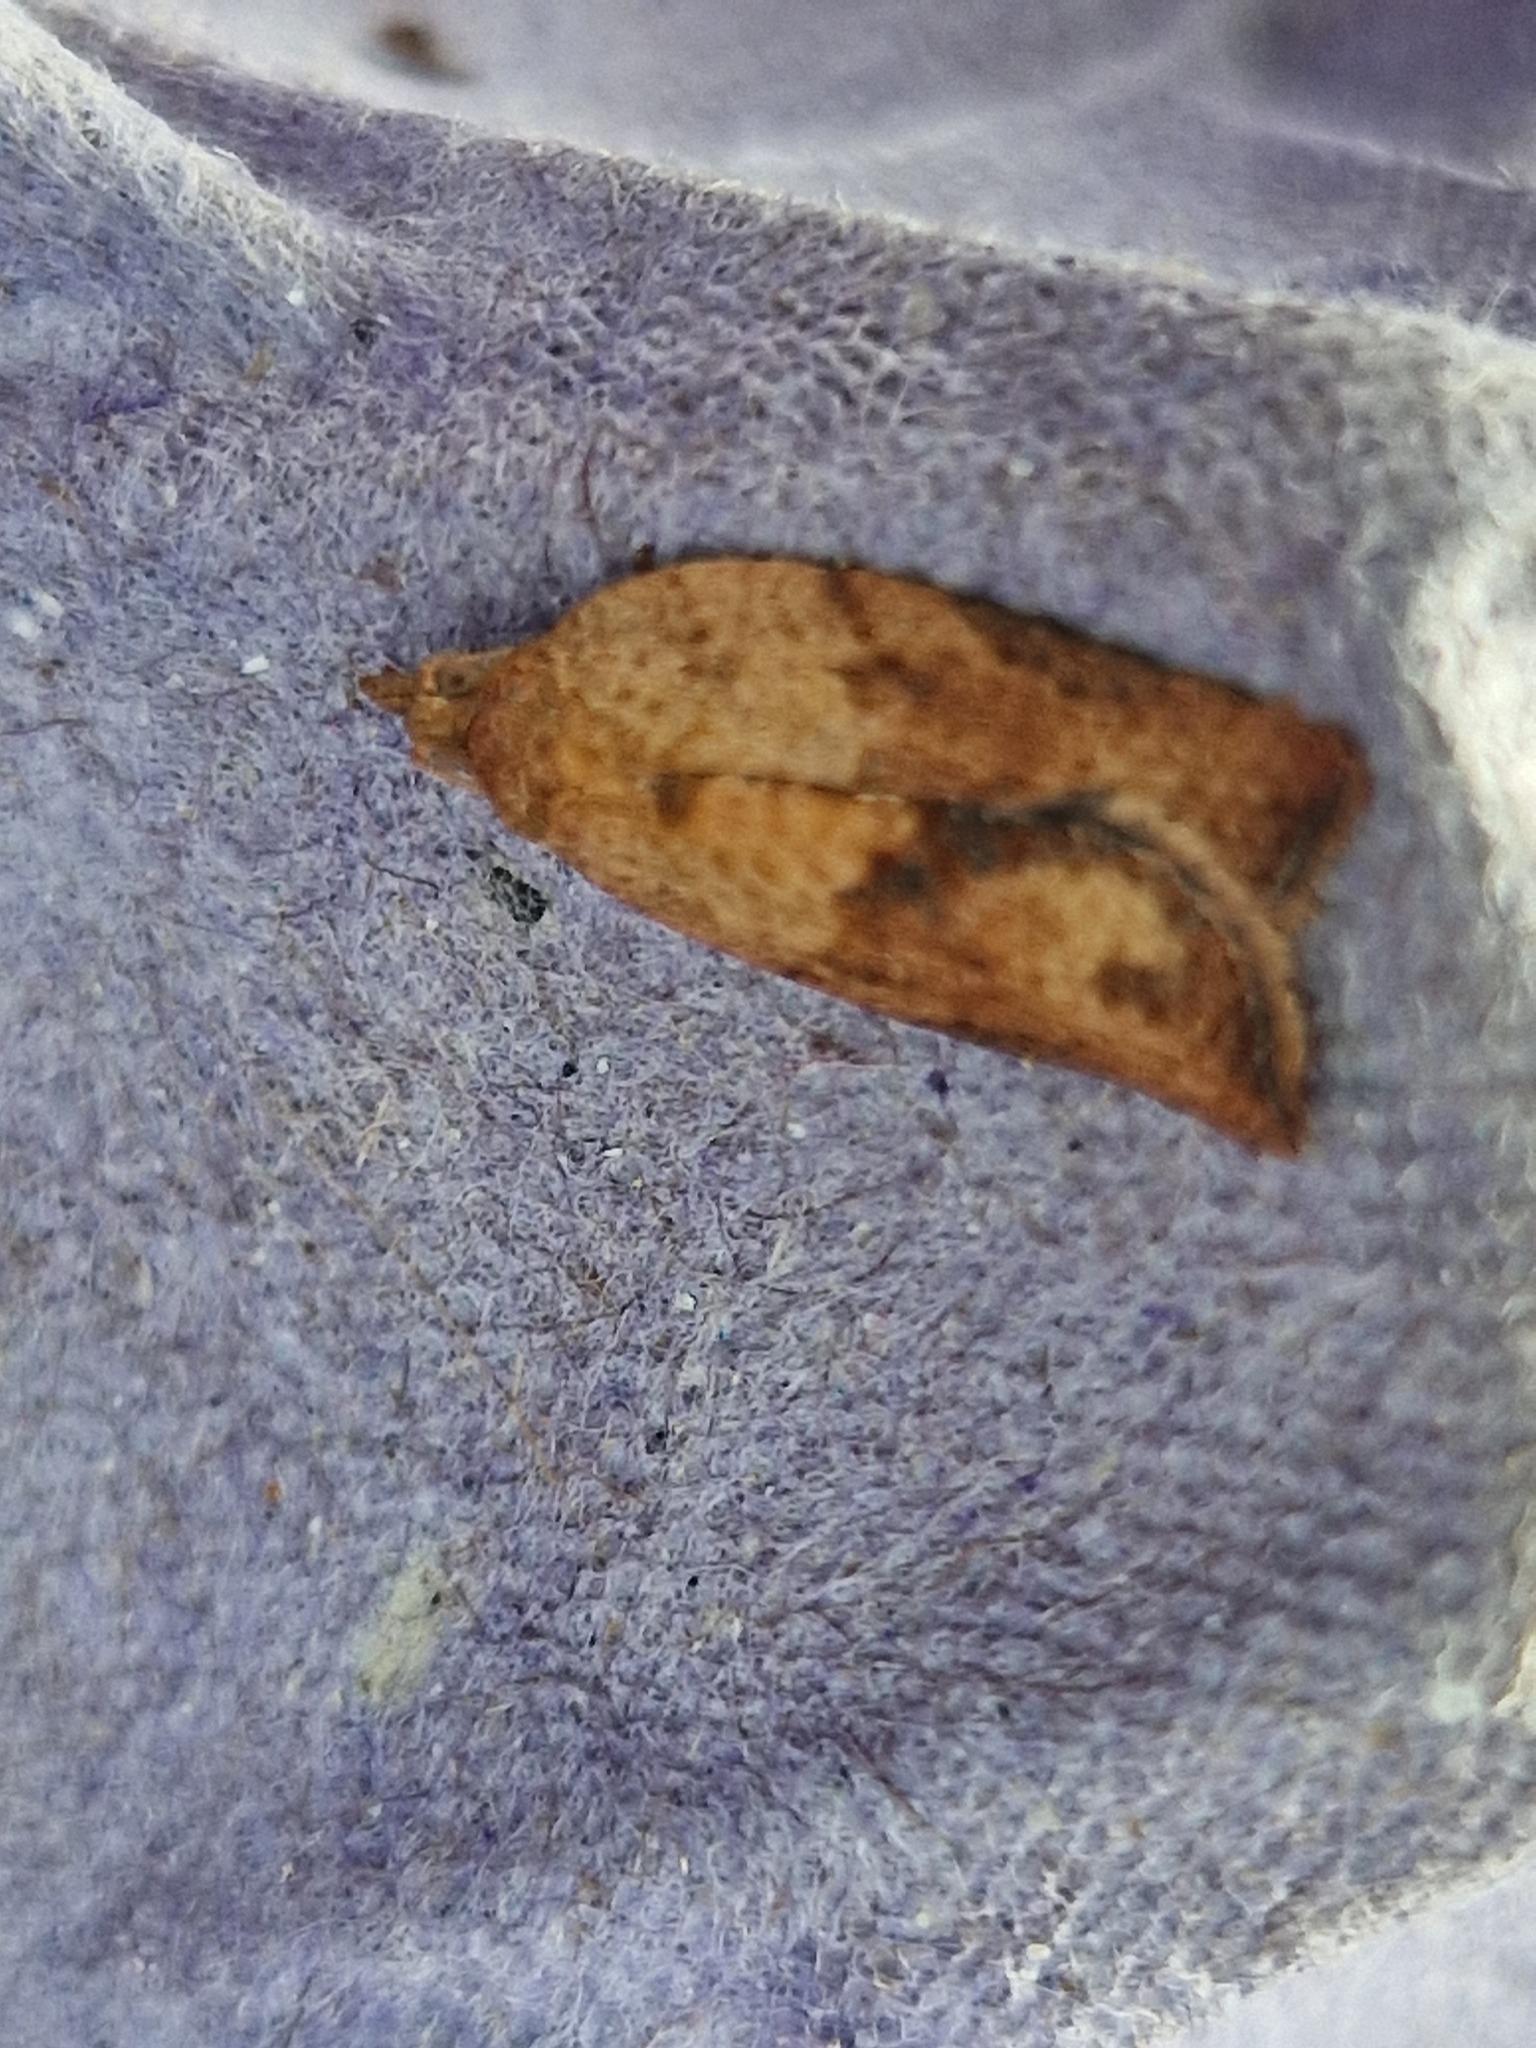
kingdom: Animalia
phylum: Arthropoda
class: Insecta
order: Lepidoptera
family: Tortricidae
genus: Epiphyas
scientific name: Epiphyas postvittana
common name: Light brown apple moth
